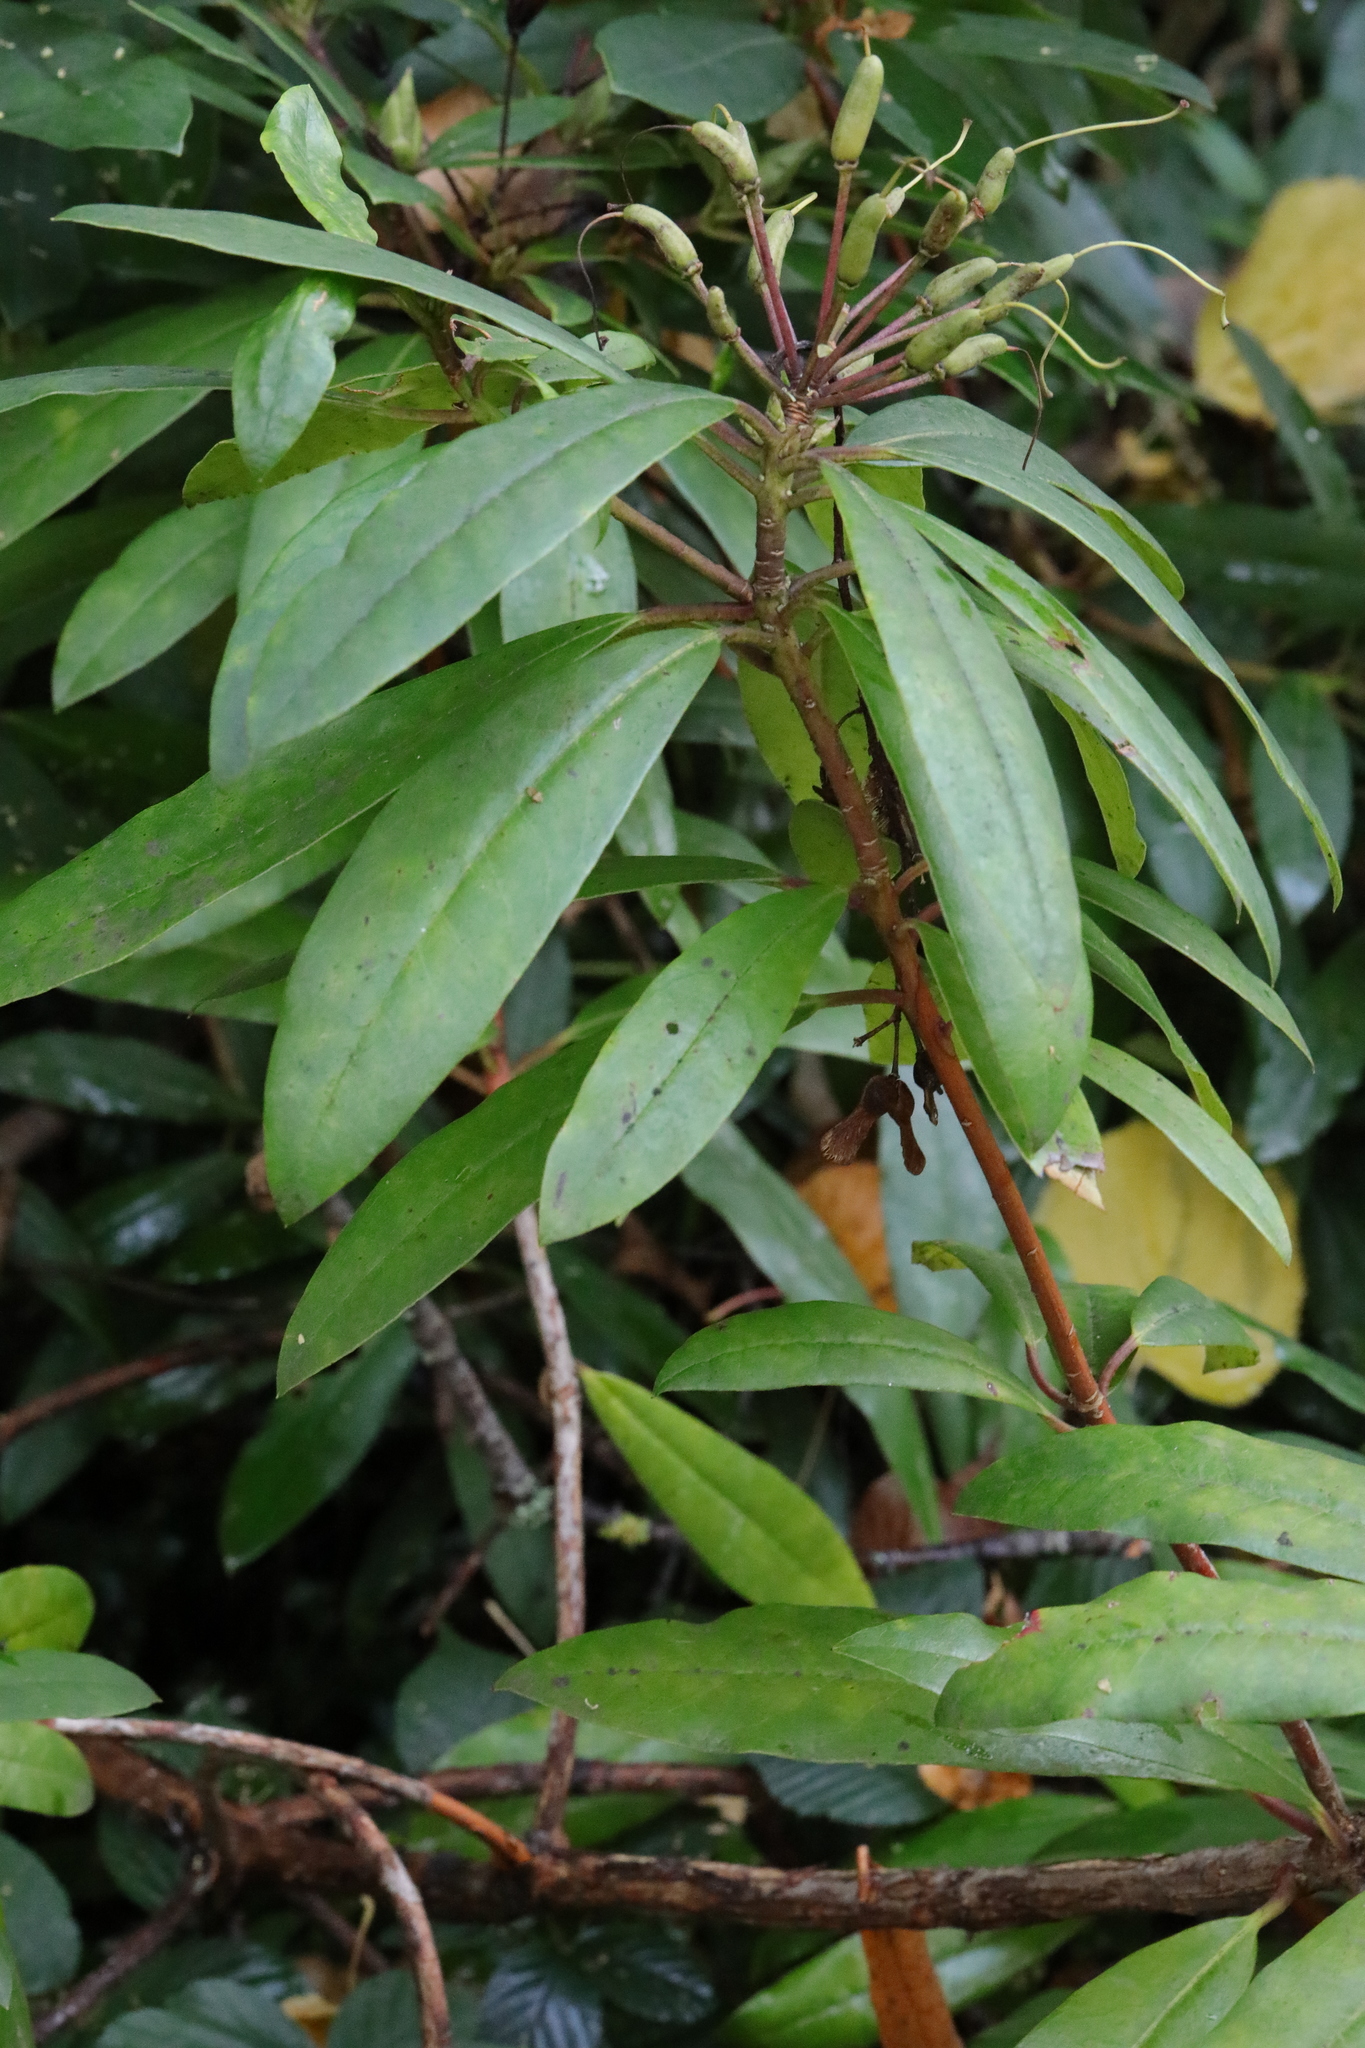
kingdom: Plantae
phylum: Tracheophyta
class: Magnoliopsida
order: Ericales
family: Ericaceae
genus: Rhododendron
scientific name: Rhododendron
